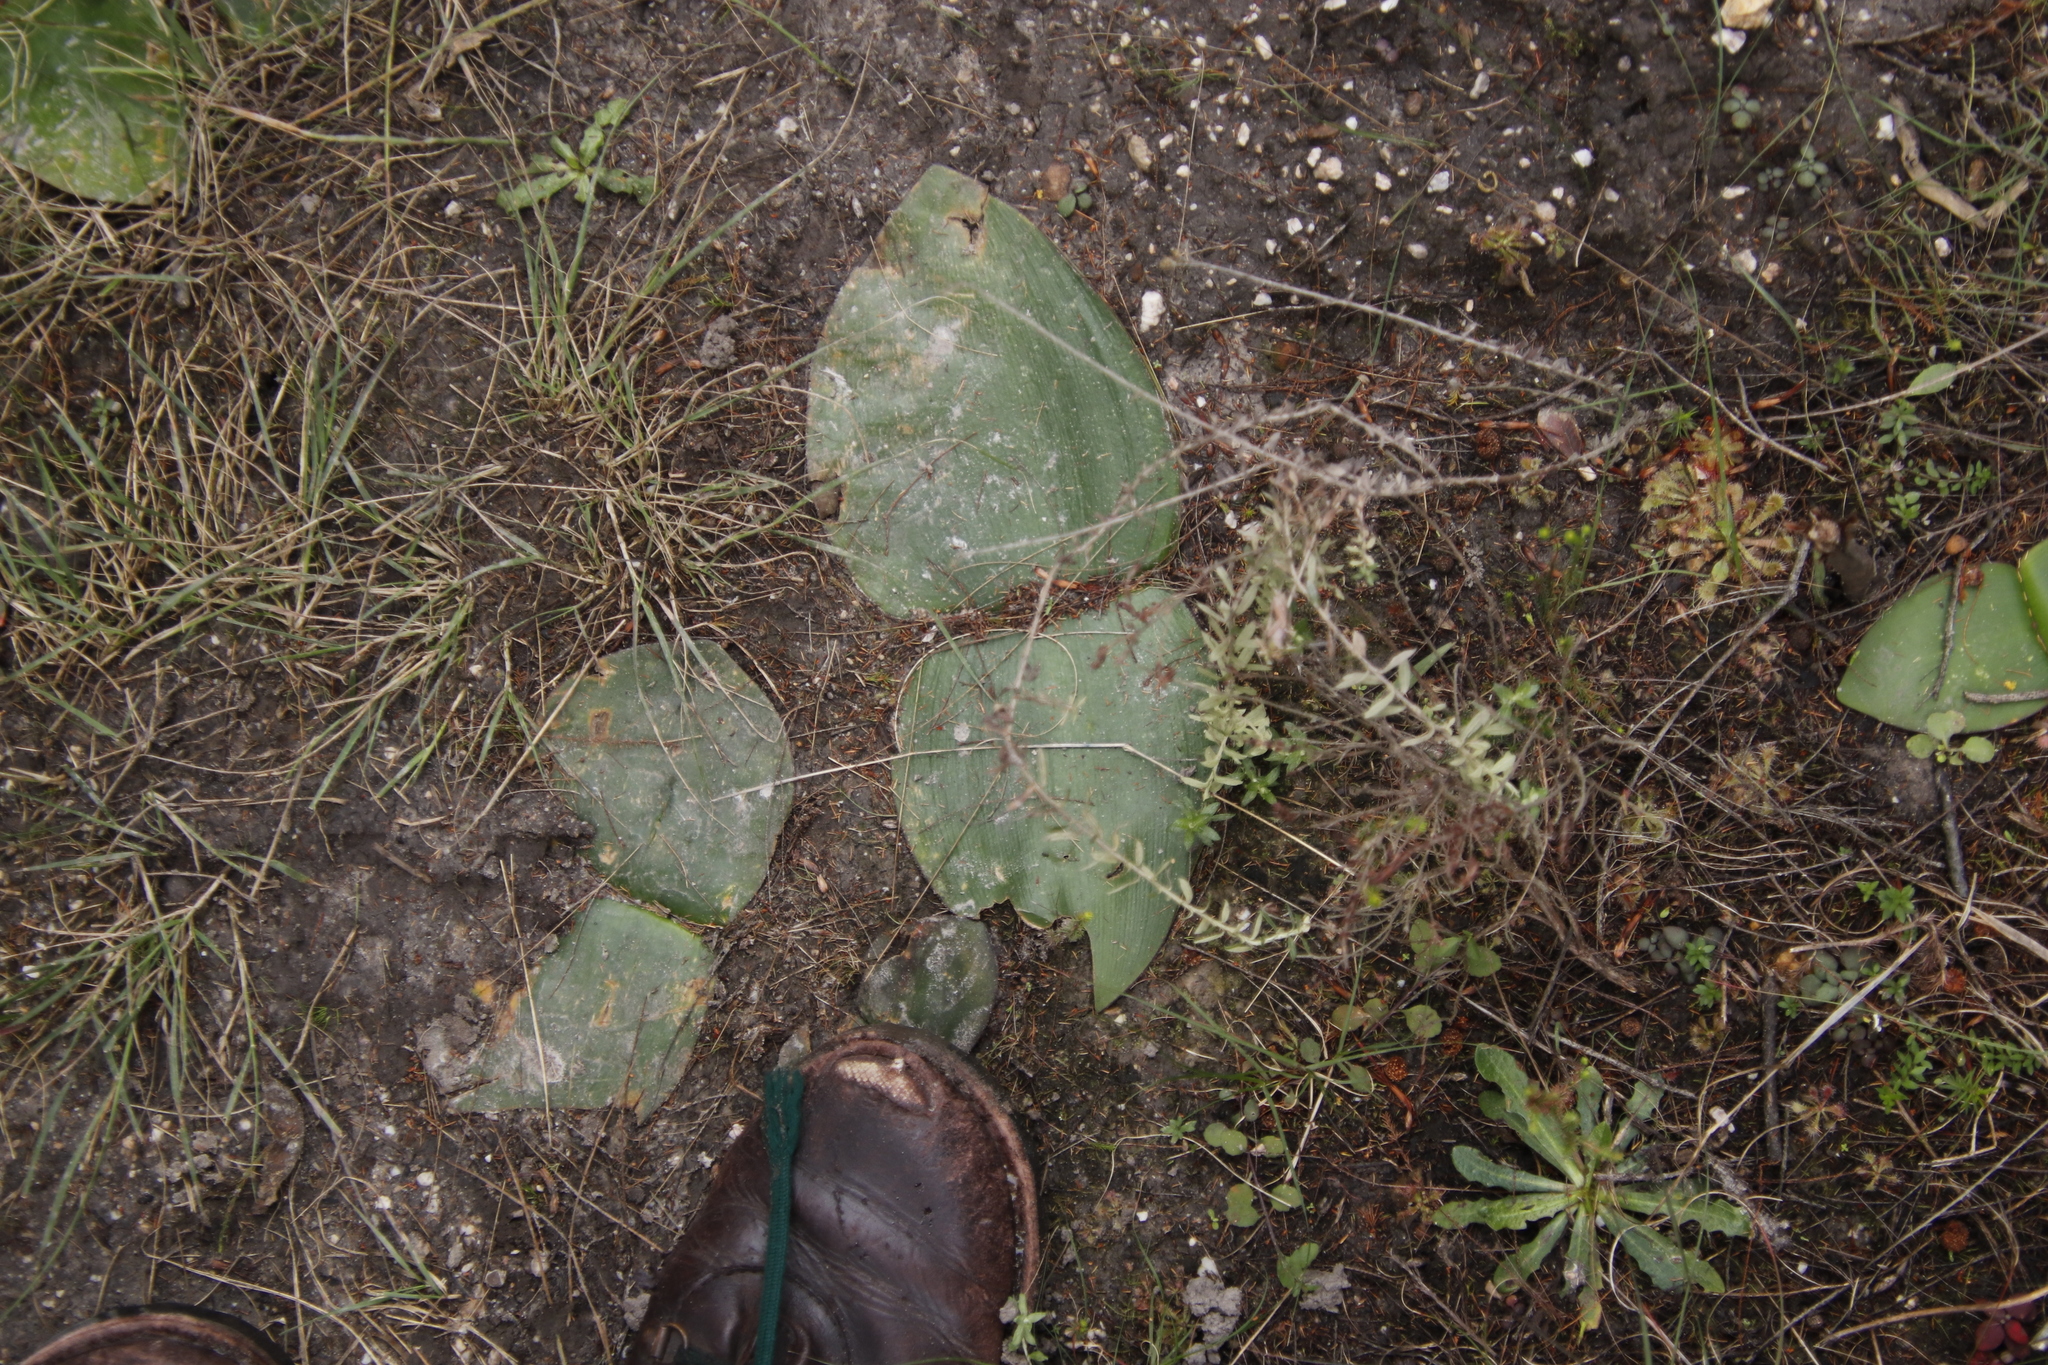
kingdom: Plantae
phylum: Tracheophyta
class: Liliopsida
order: Asparagales
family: Amaryllidaceae
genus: Haemanthus
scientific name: Haemanthus sanguineus
